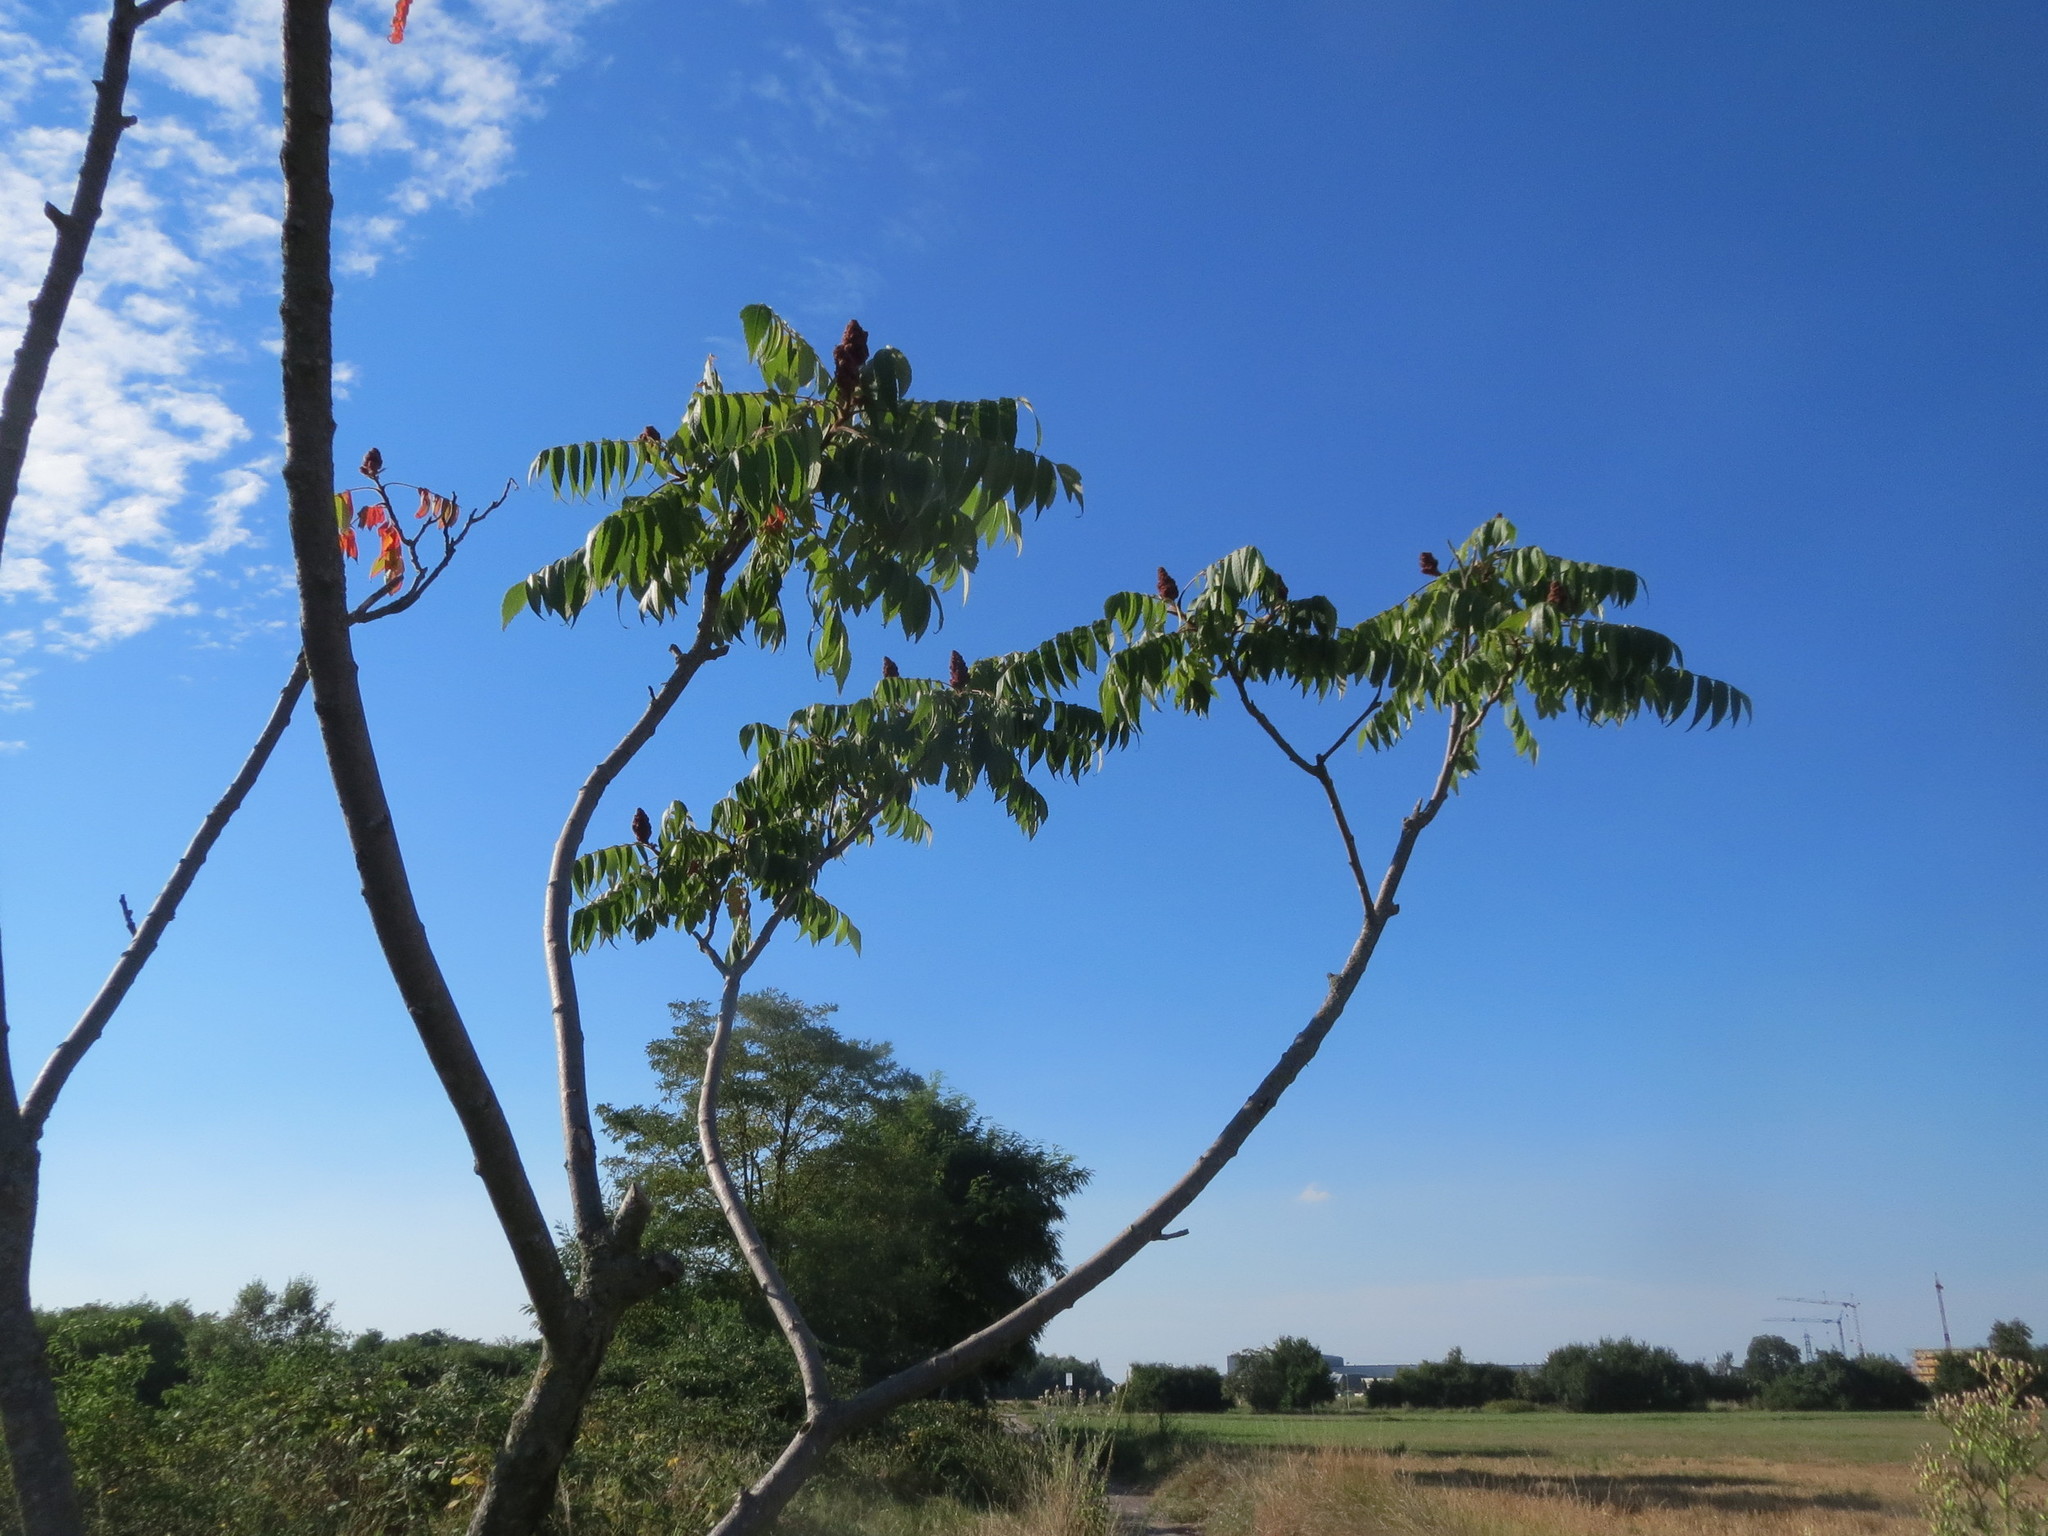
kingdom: Plantae
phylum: Tracheophyta
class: Magnoliopsida
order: Sapindales
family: Anacardiaceae
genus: Rhus
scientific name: Rhus typhina
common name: Staghorn sumac
